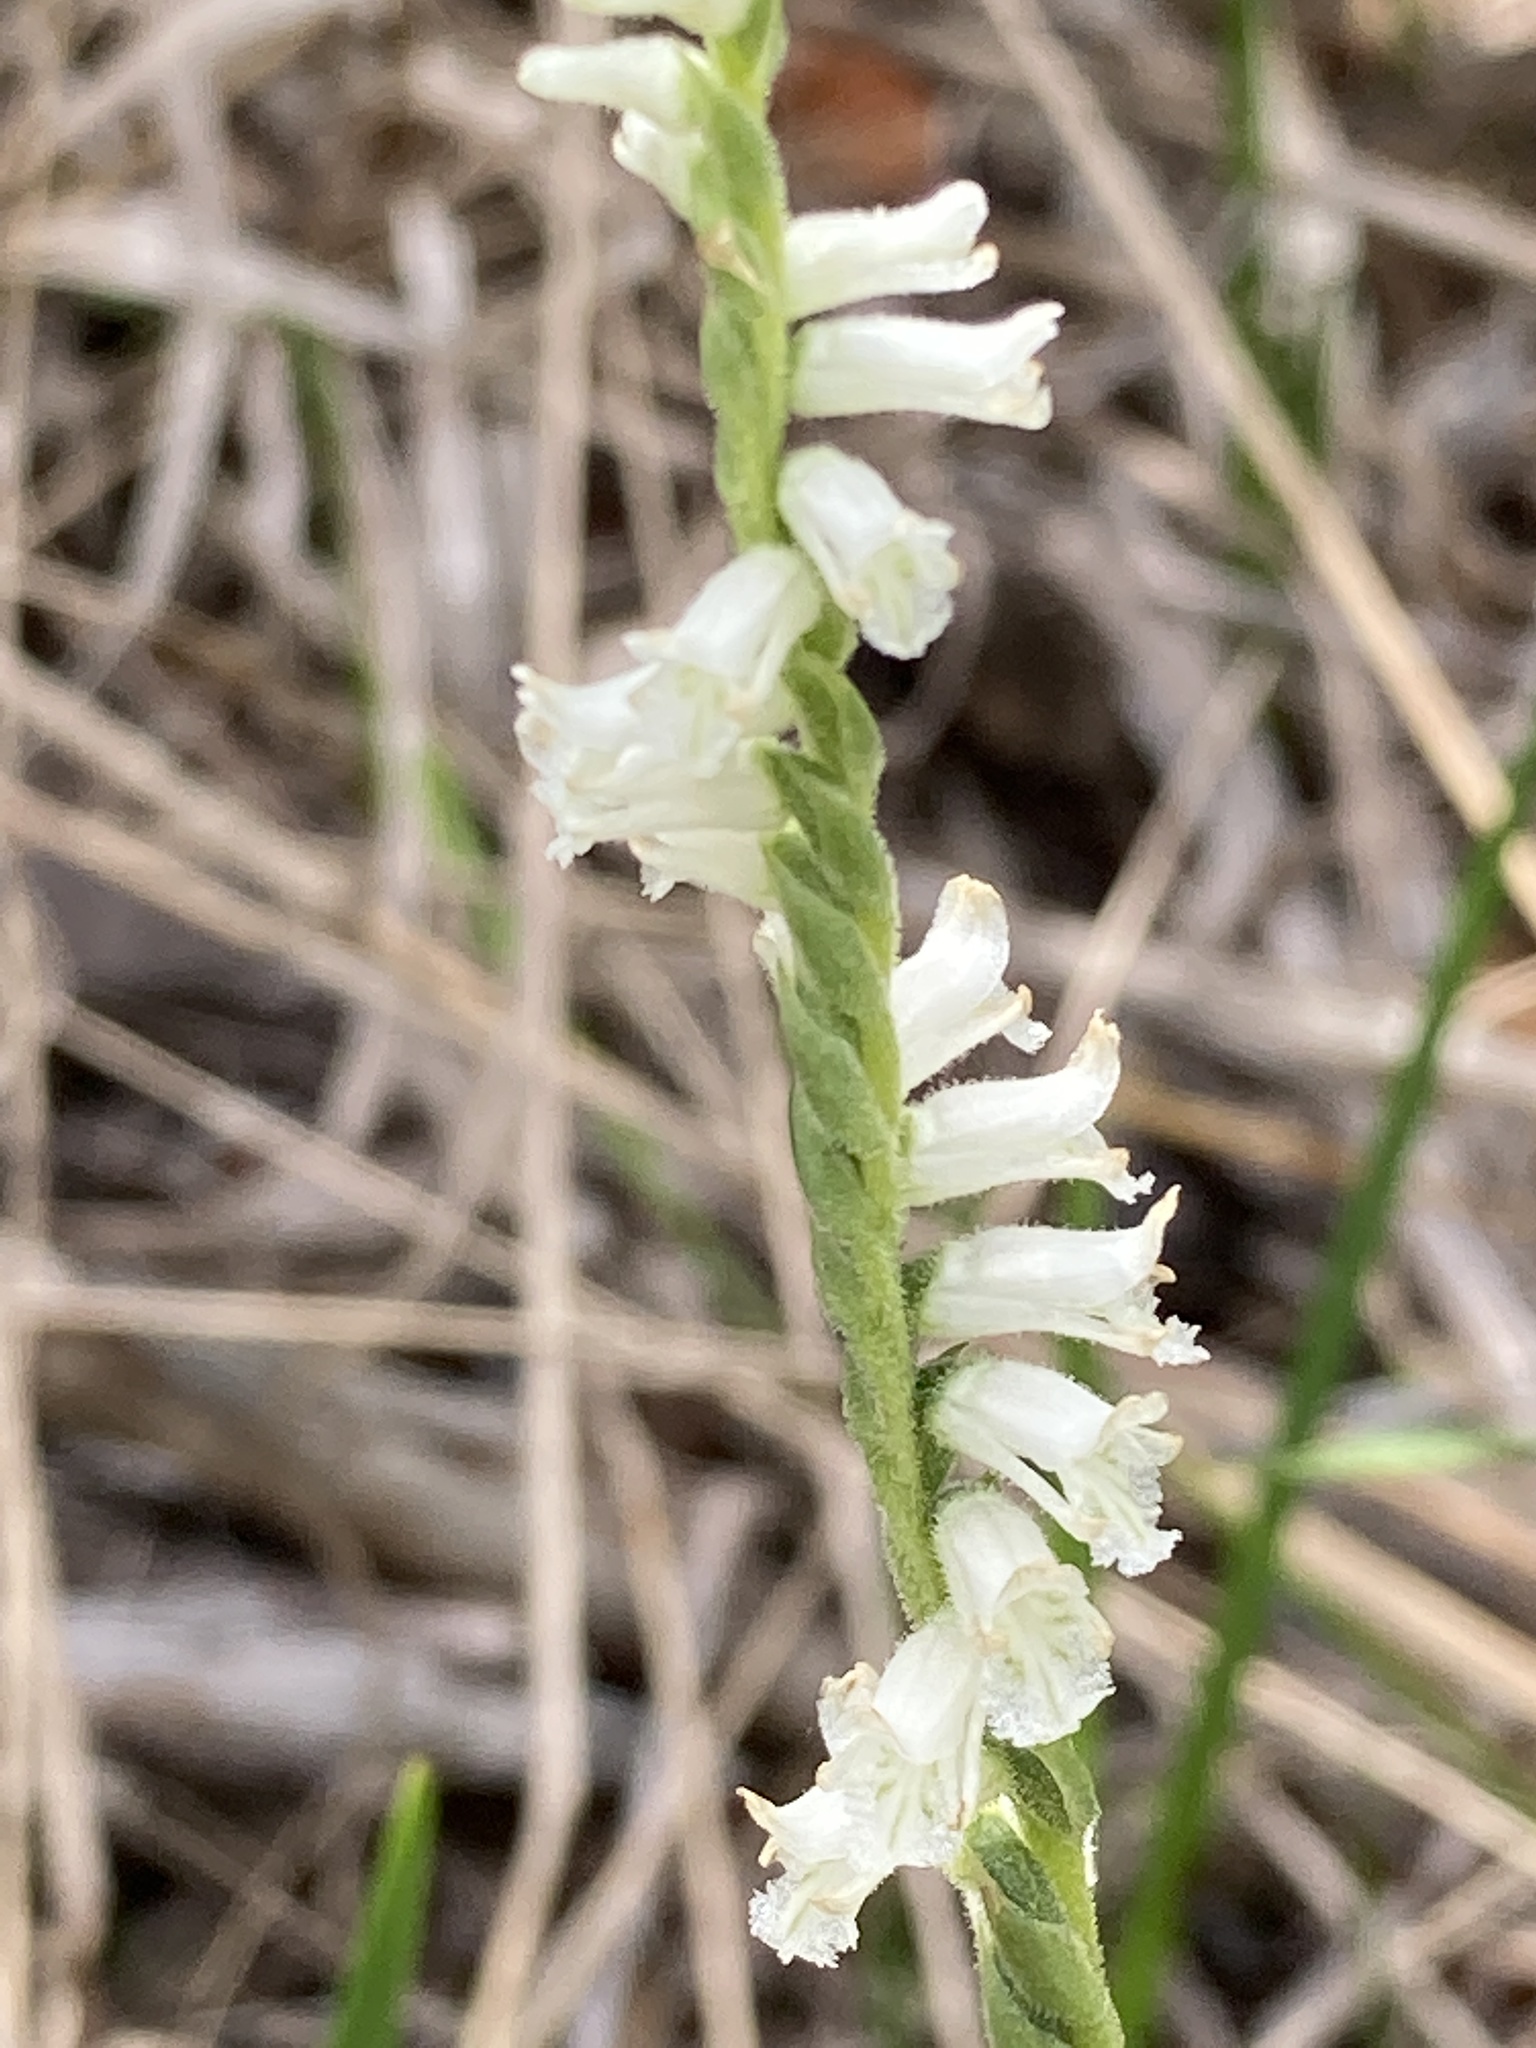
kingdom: Plantae
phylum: Tracheophyta
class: Liliopsida
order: Asparagales
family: Orchidaceae
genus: Spiranthes
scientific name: Spiranthes praecox
